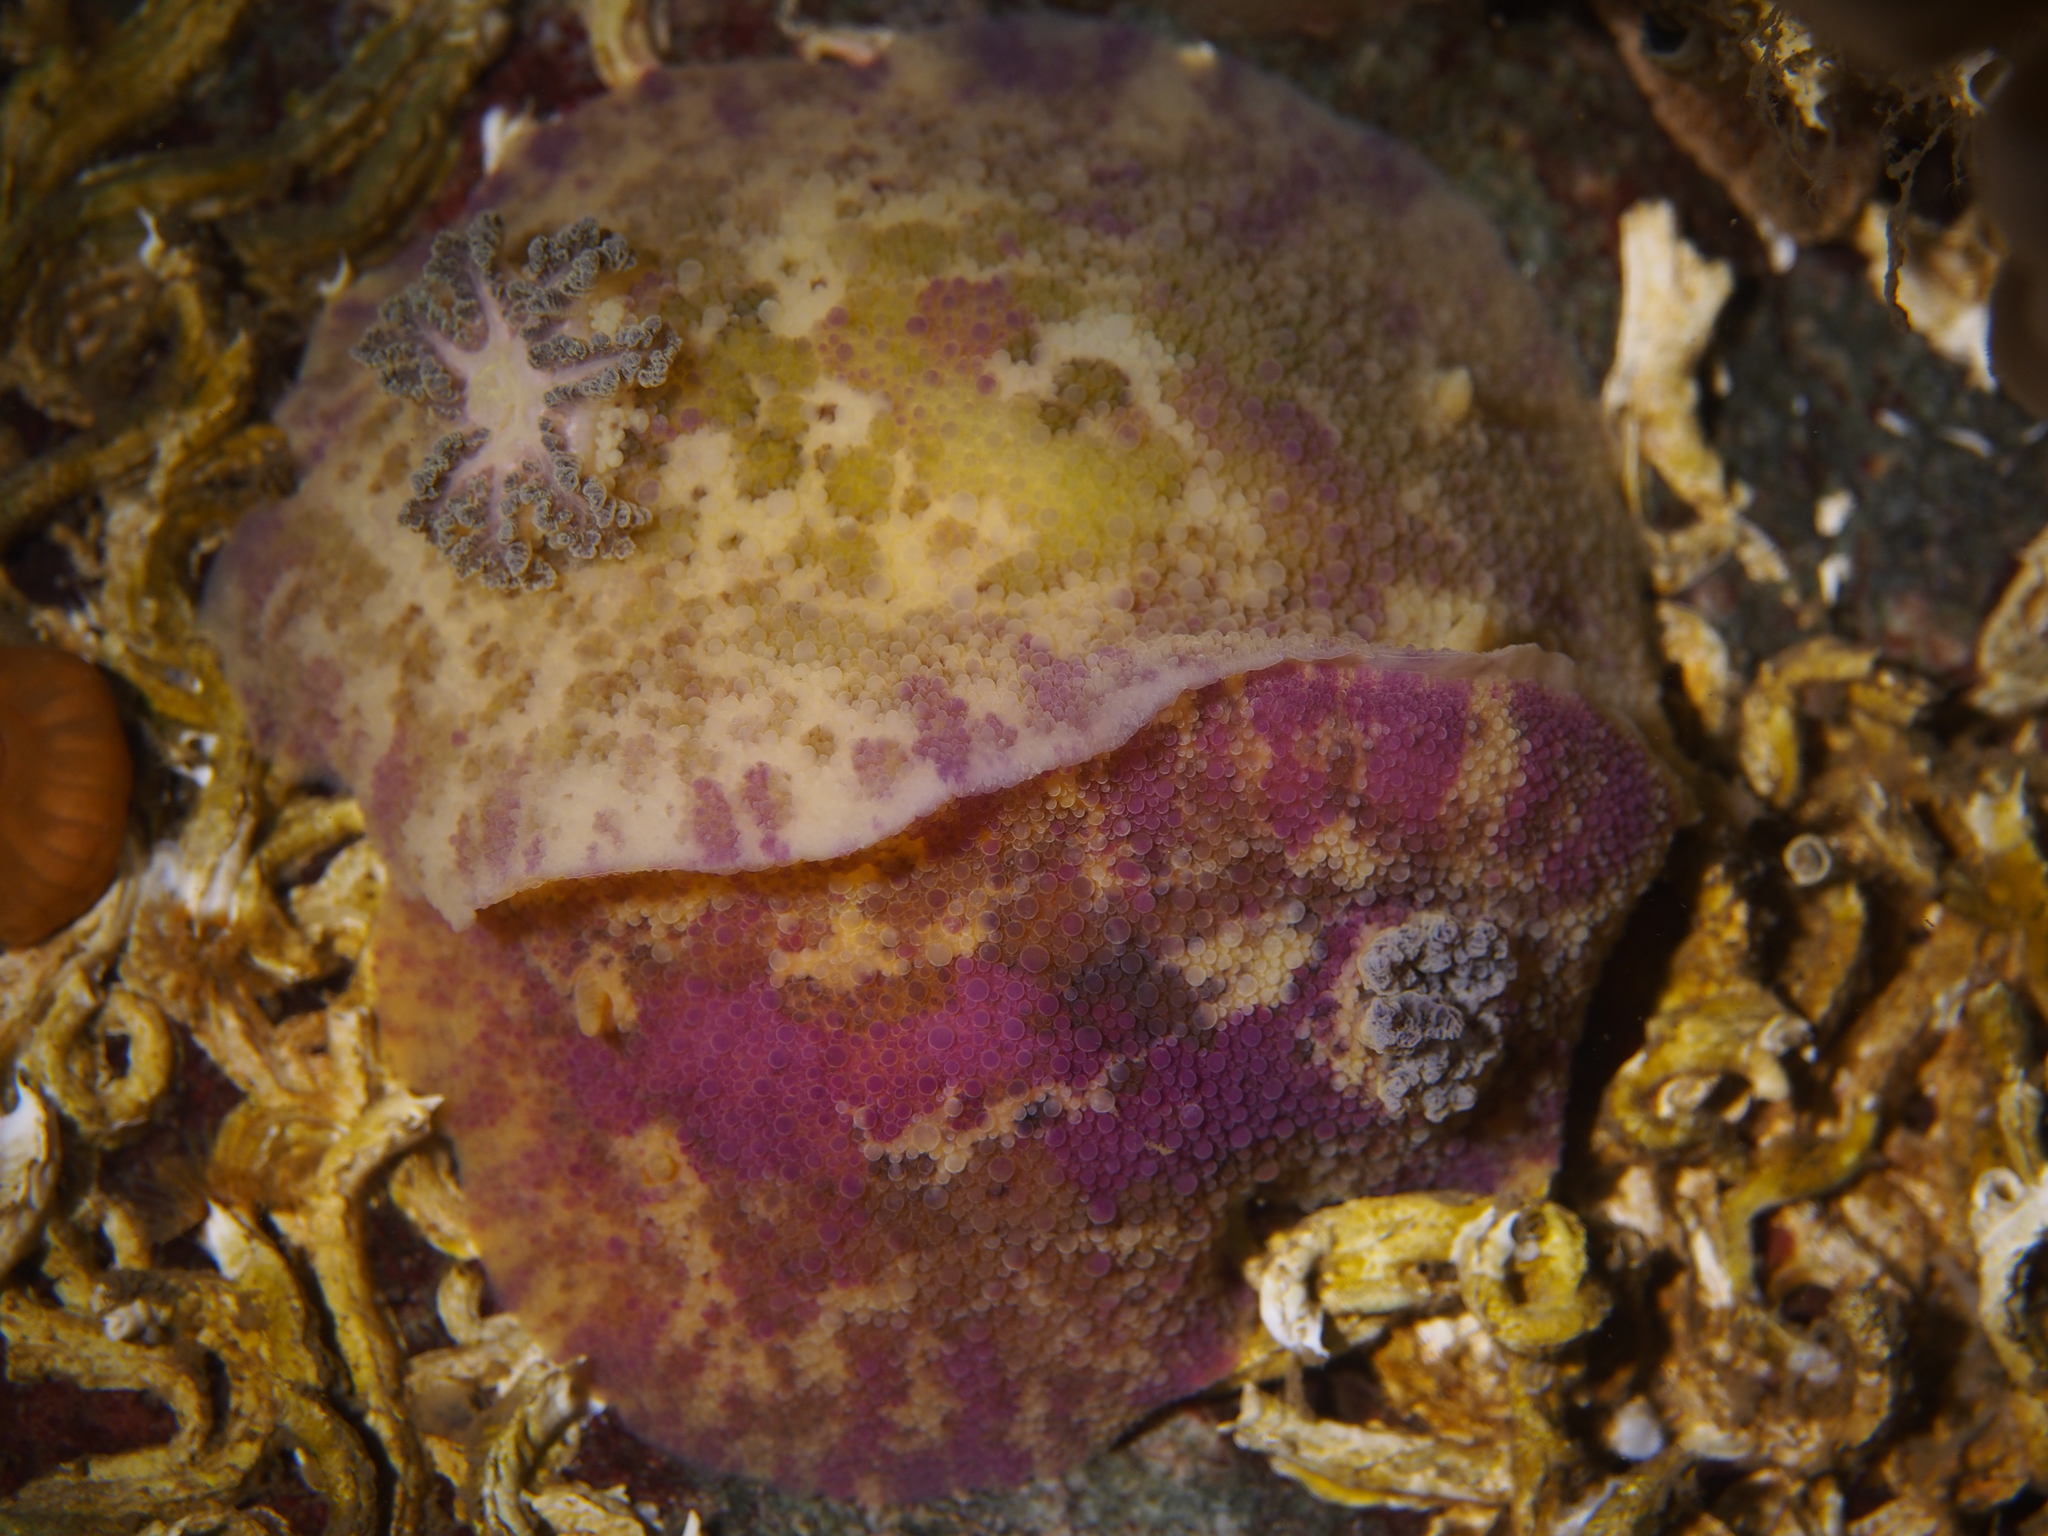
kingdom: Animalia
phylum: Mollusca
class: Gastropoda
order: Nudibranchia
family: Dorididae
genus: Doris
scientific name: Doris pseudoargus
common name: Sea lemon
